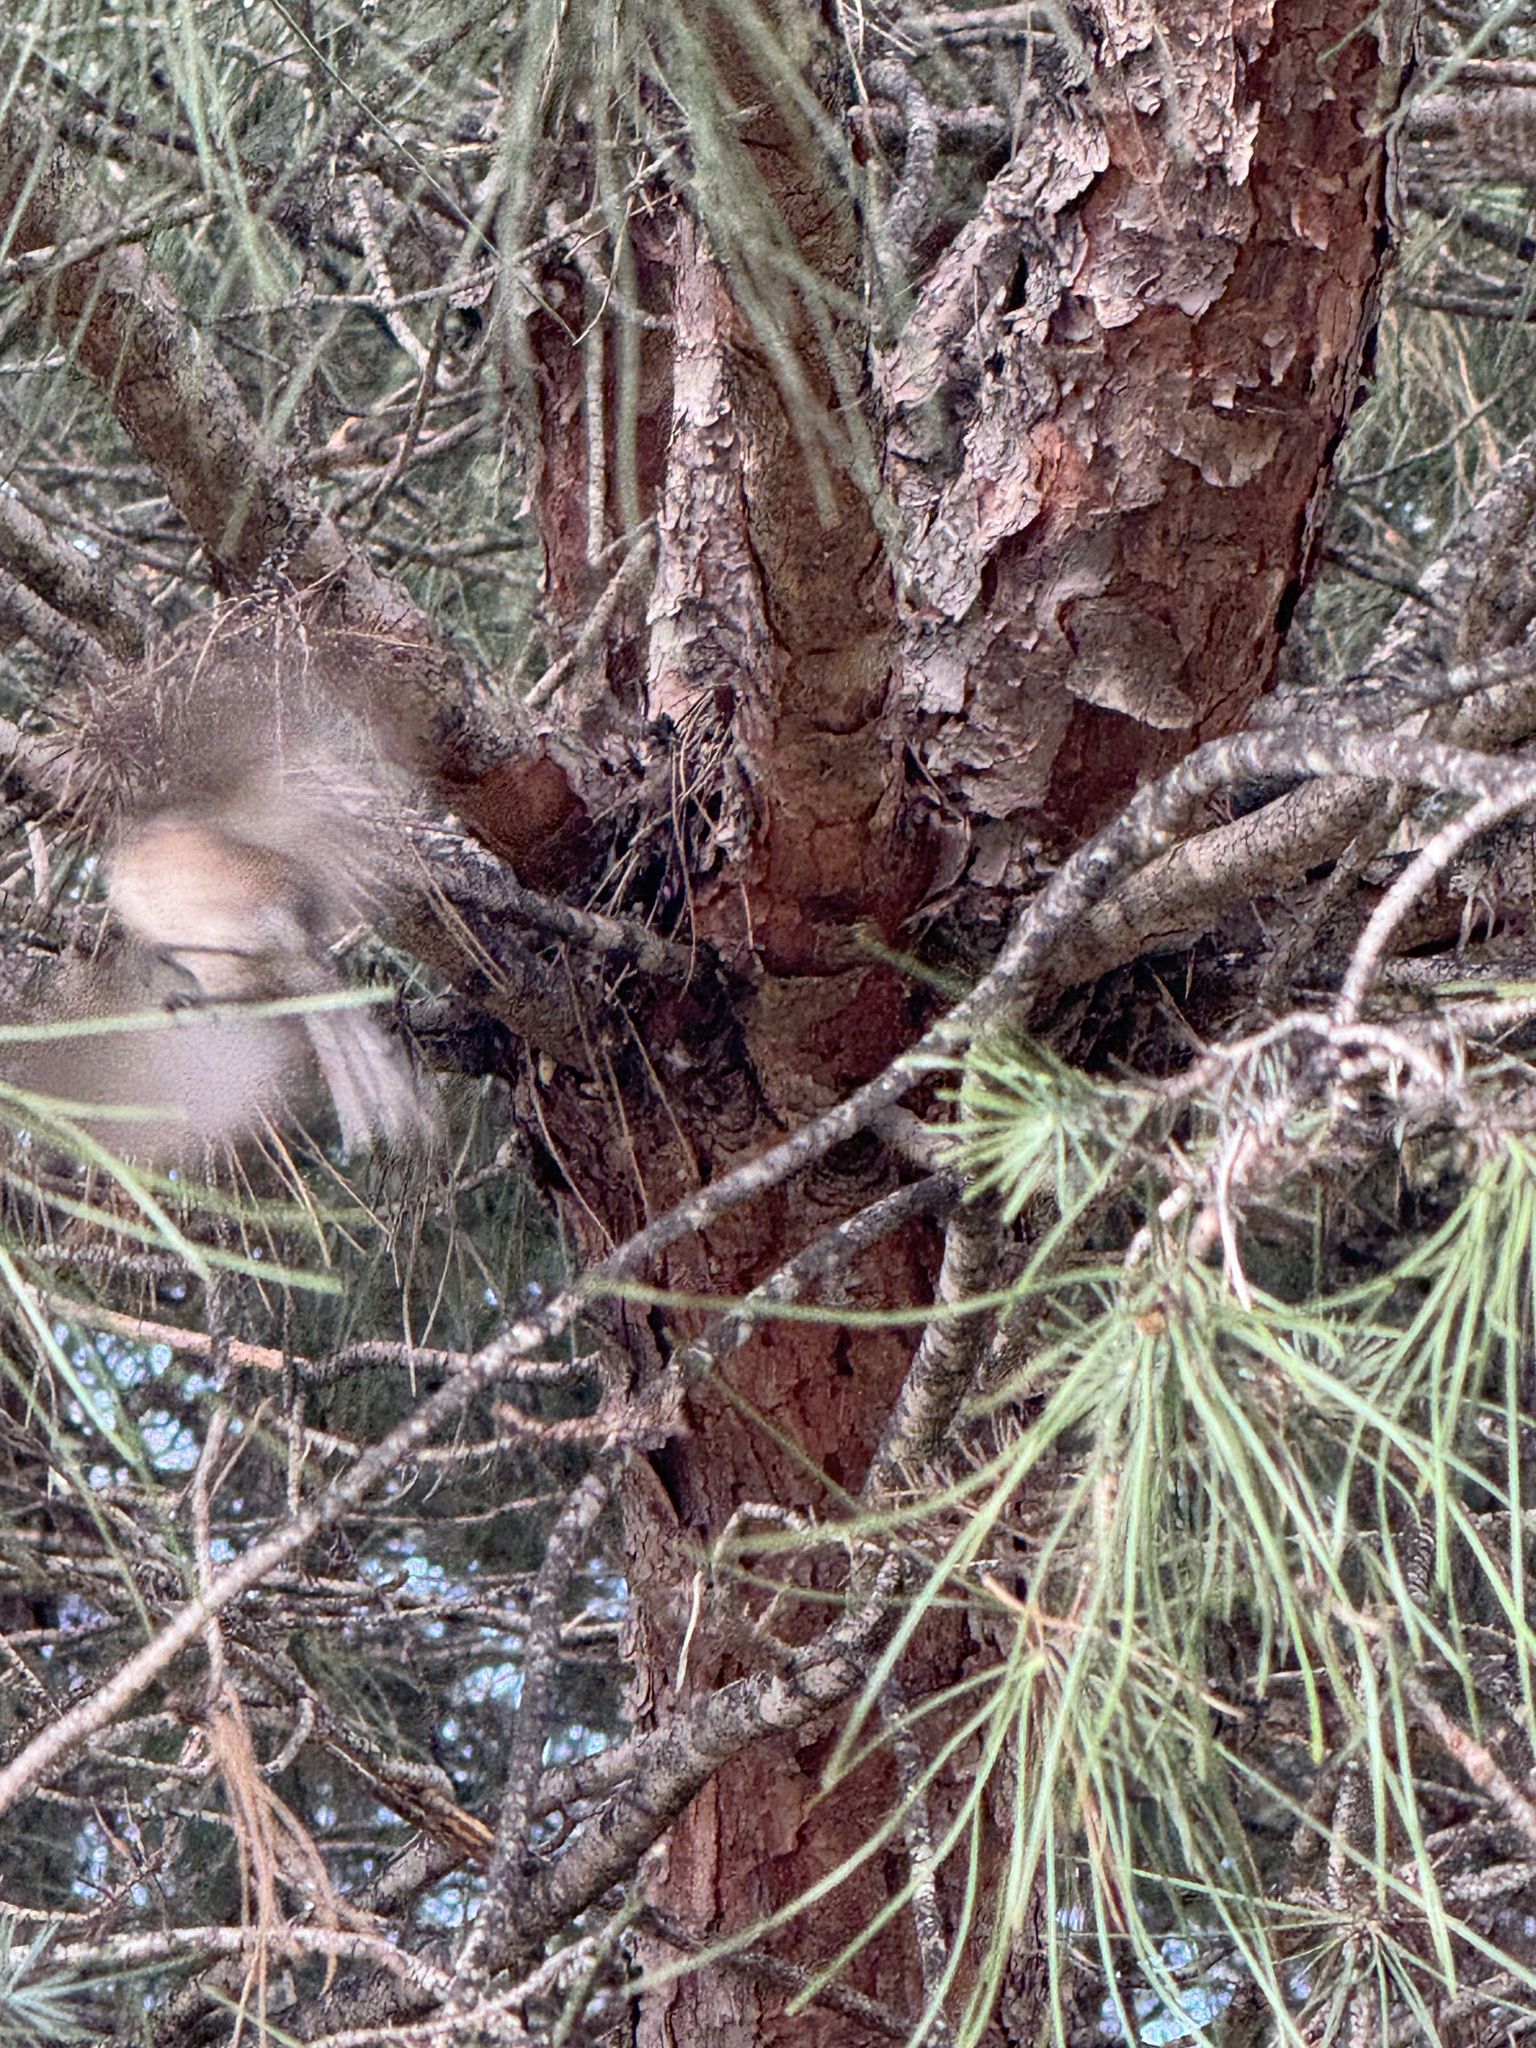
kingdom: Animalia
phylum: Chordata
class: Aves
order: Passeriformes
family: Aegithalidae
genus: Psaltriparus
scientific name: Psaltriparus minimus
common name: American bushtit
